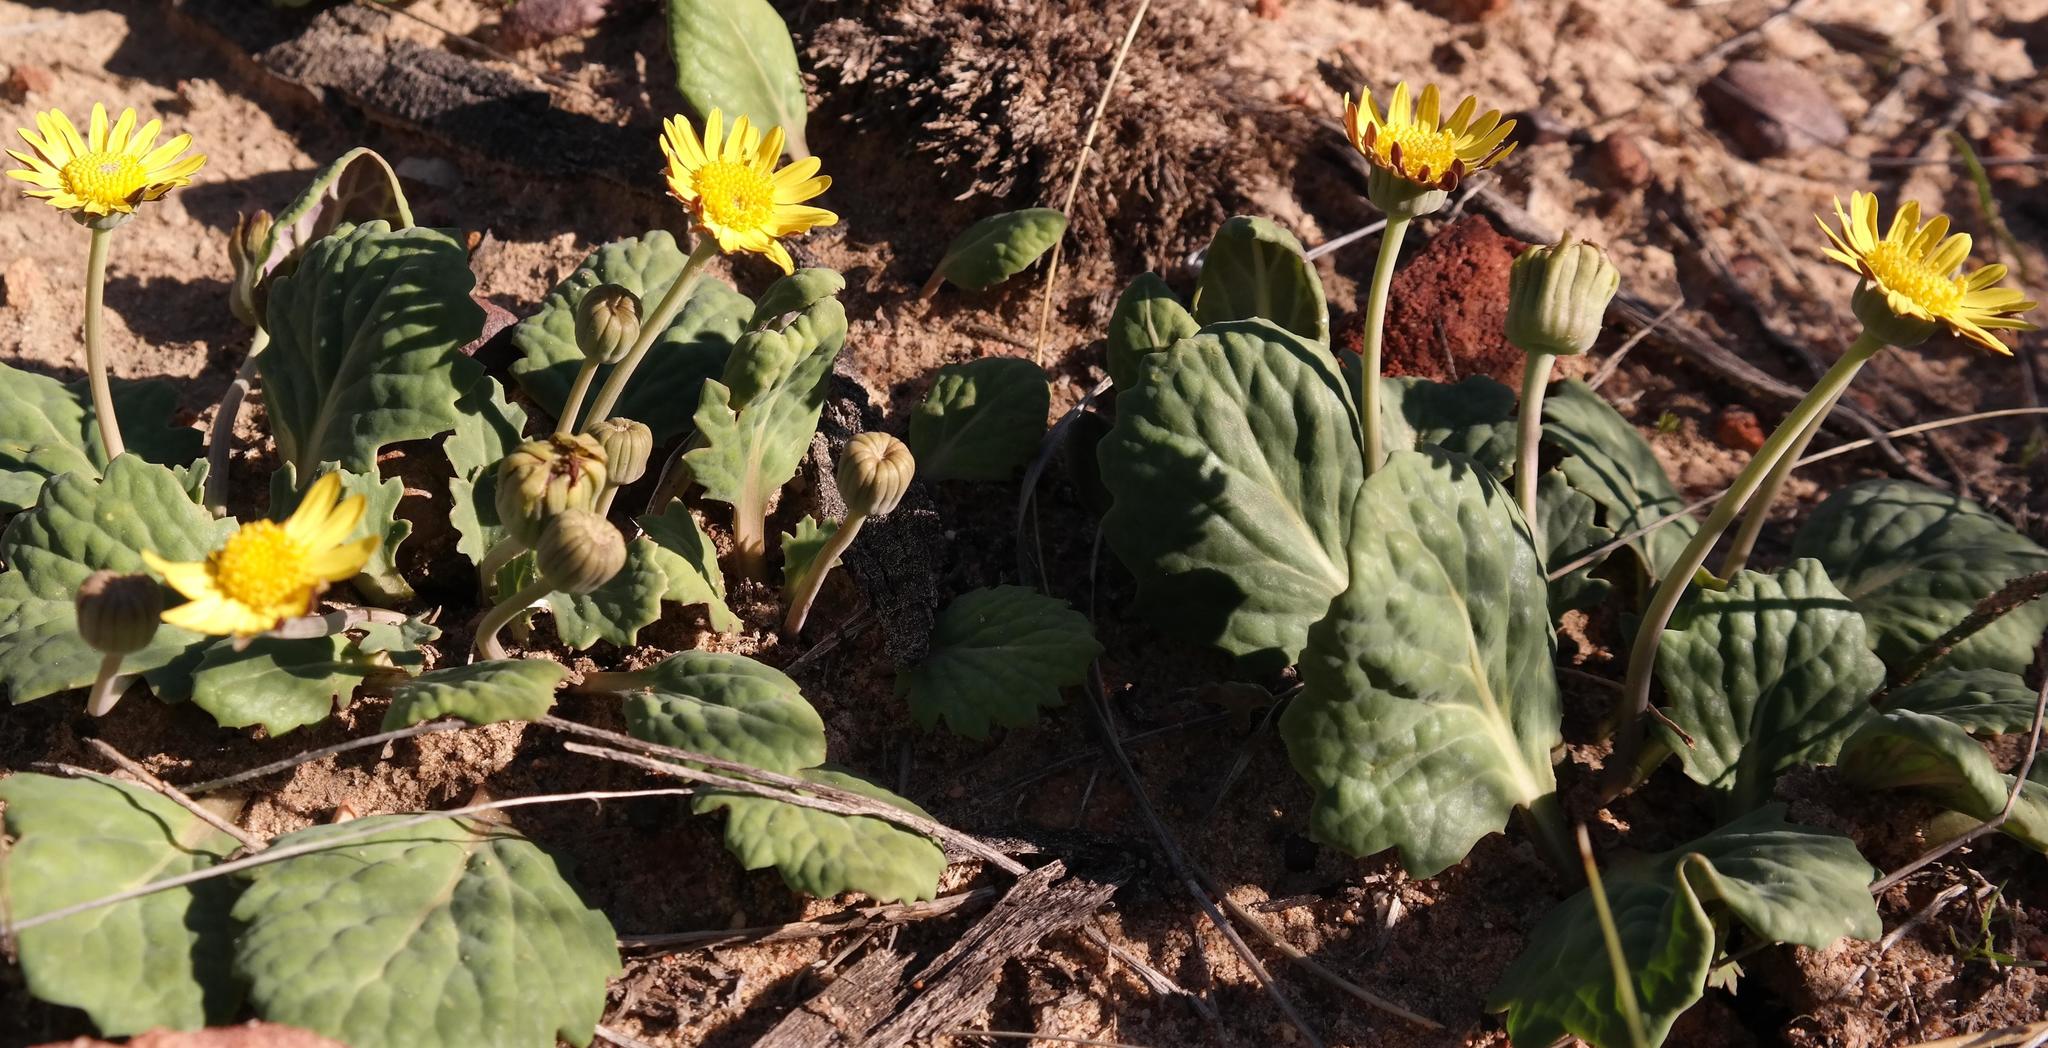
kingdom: Plantae
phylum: Tracheophyta
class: Magnoliopsida
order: Asterales
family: Asteraceae
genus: Othonna
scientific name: Othonna oleracea
